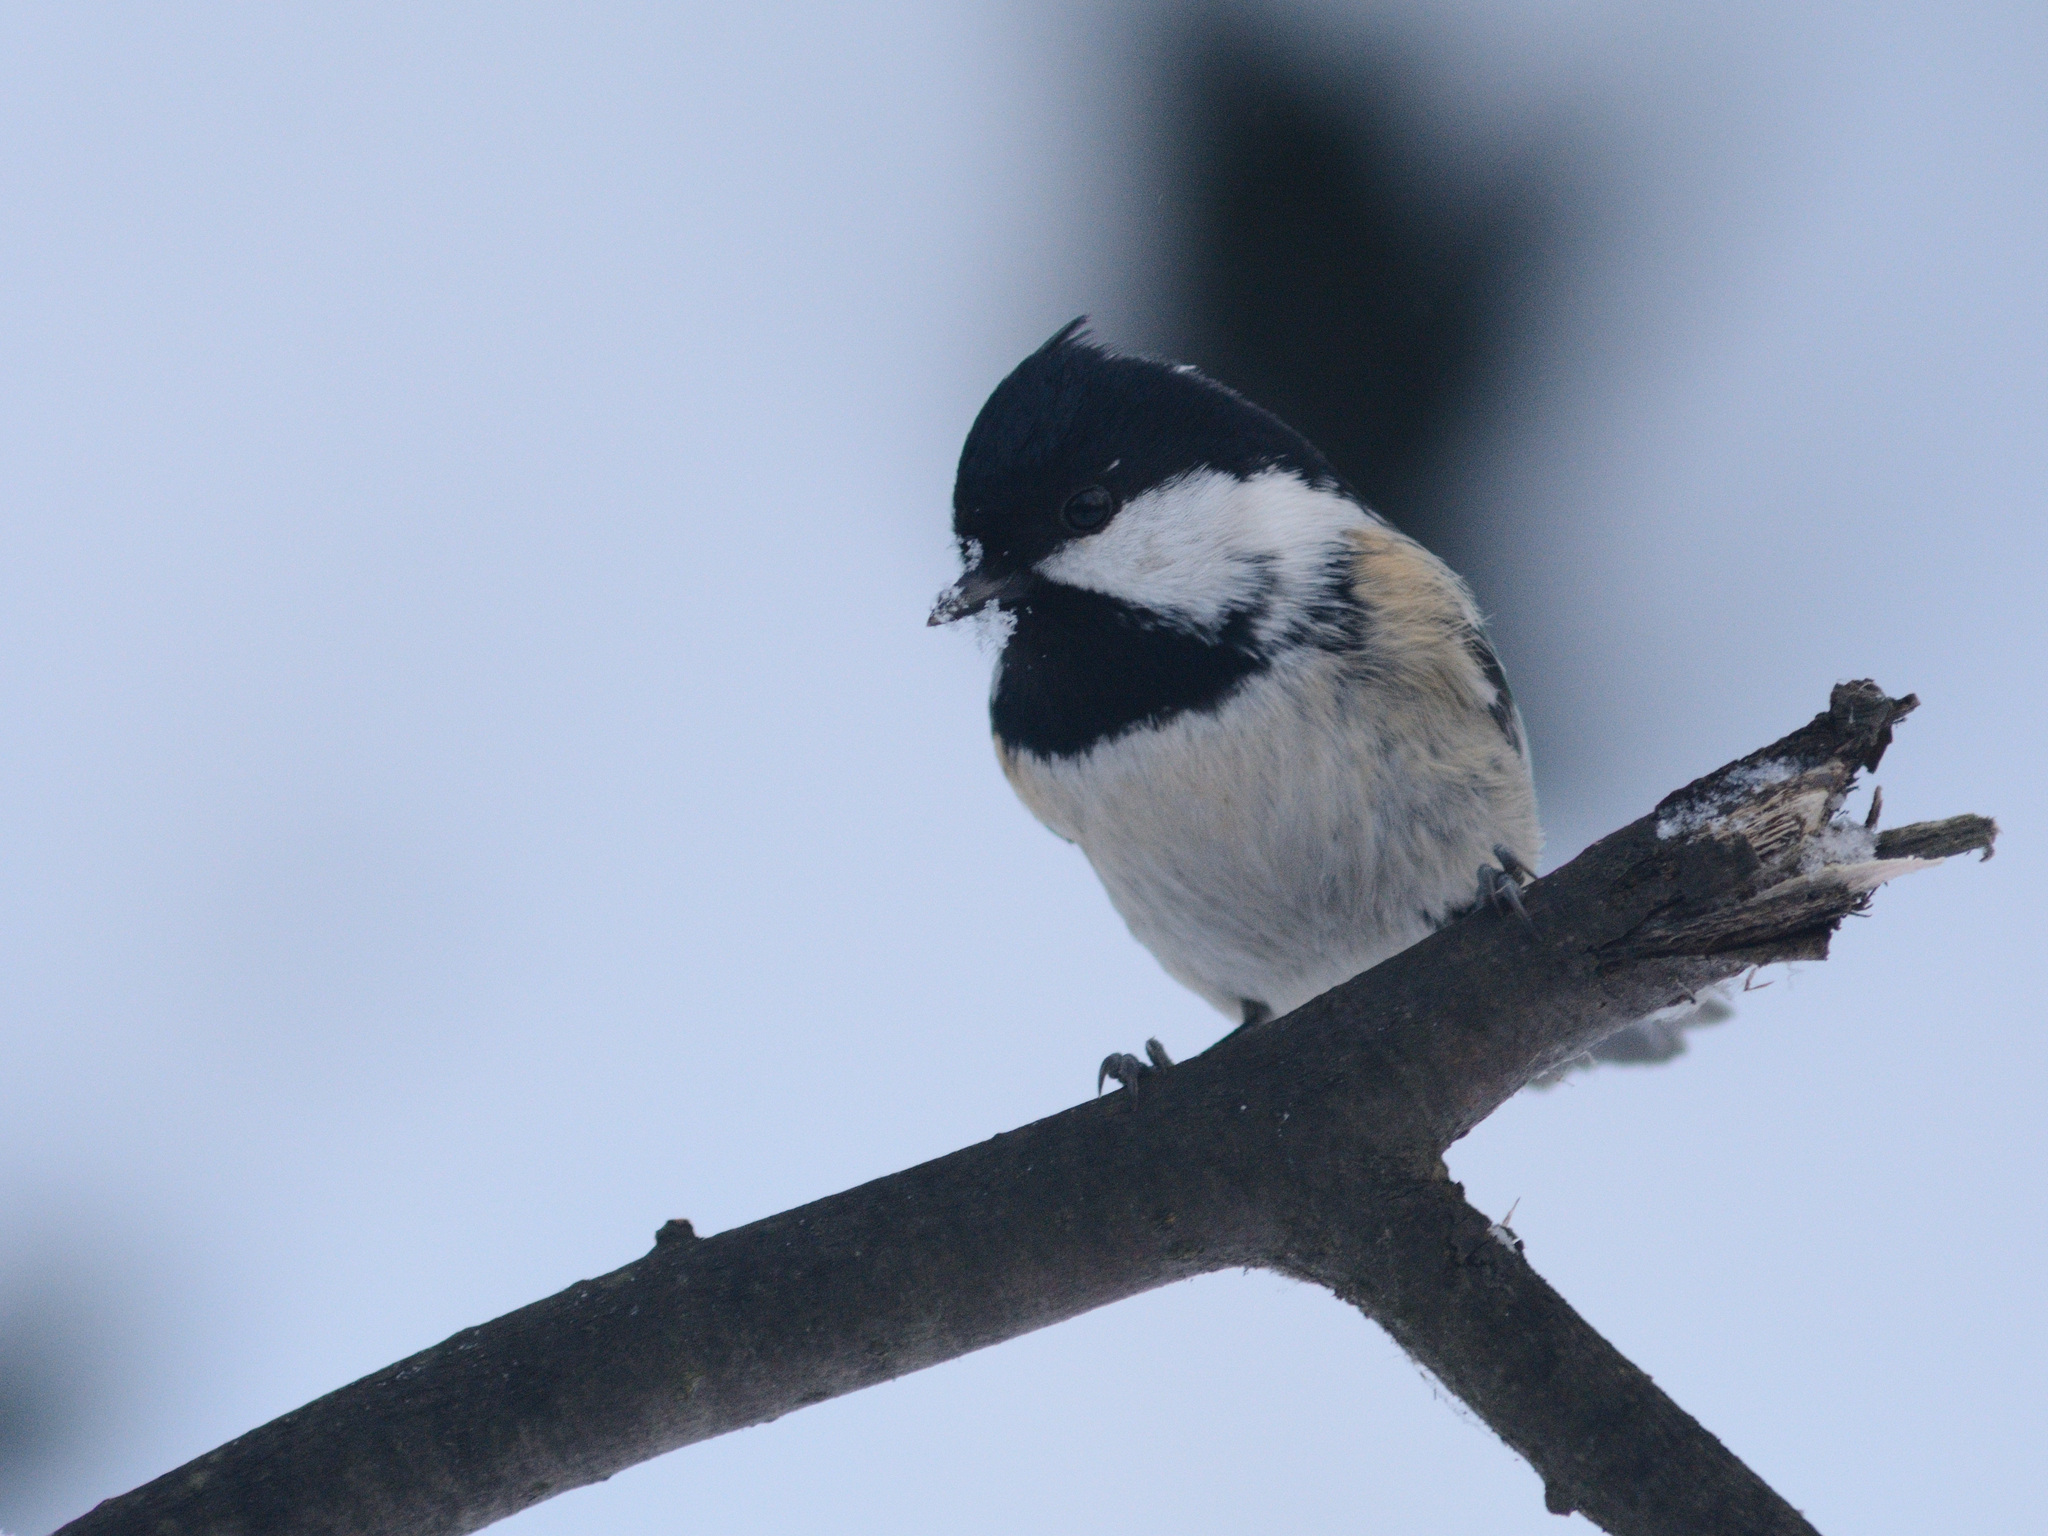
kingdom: Animalia
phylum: Chordata
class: Aves
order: Passeriformes
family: Paridae
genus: Periparus
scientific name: Periparus ater
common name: Coal tit
